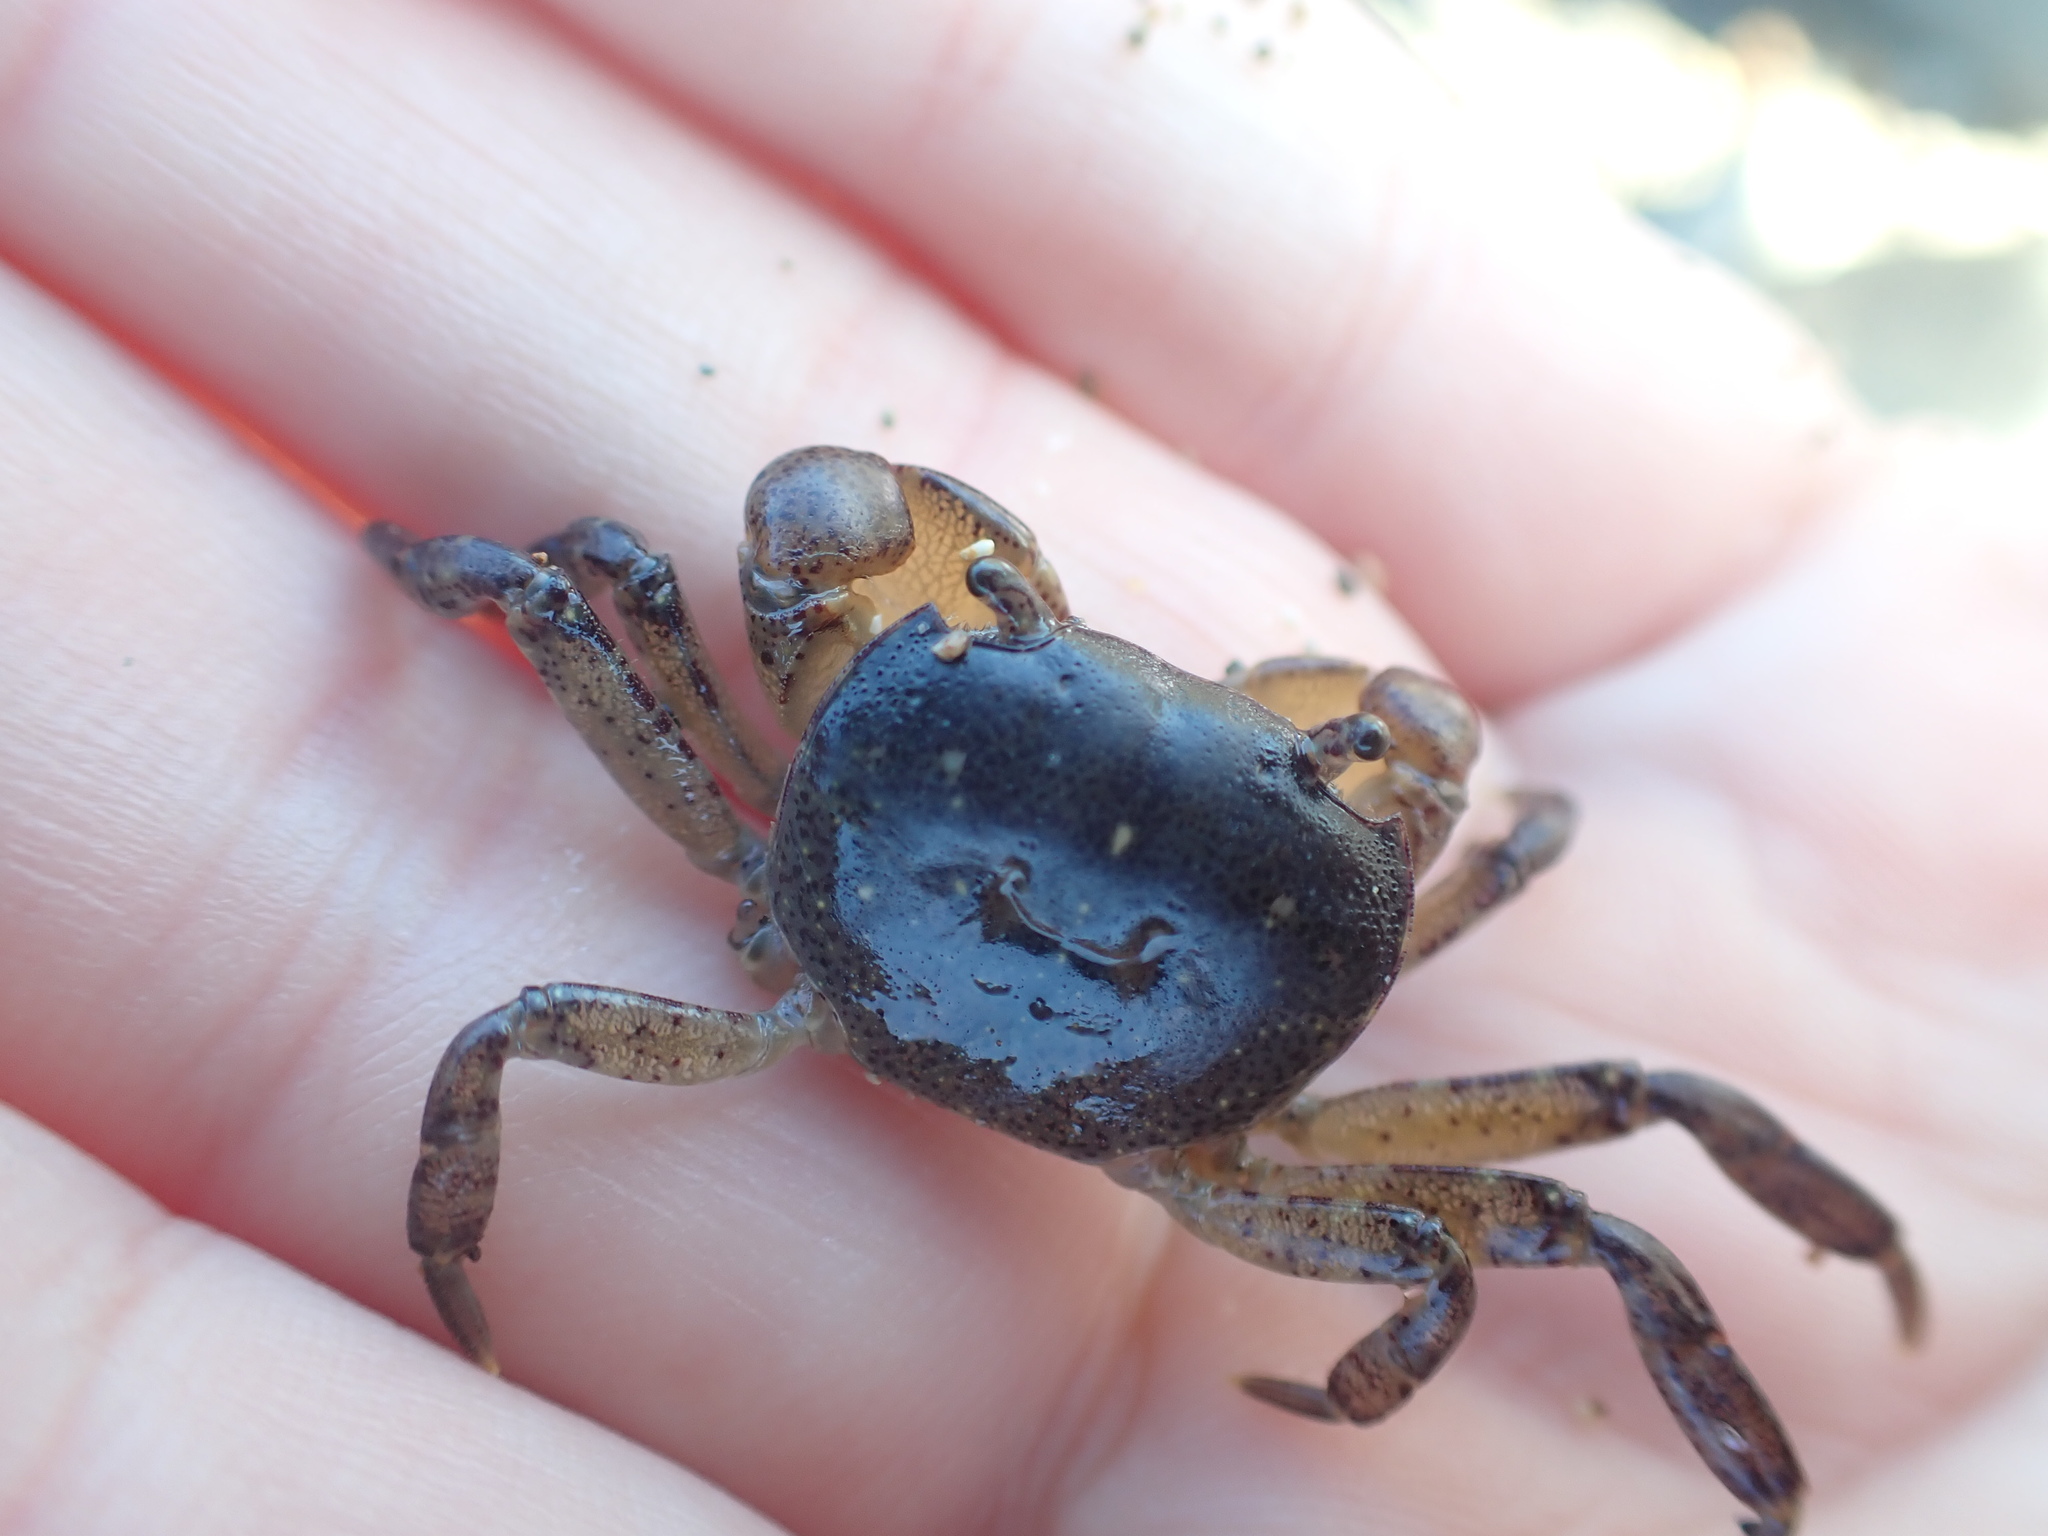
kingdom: Animalia
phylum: Arthropoda
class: Malacostraca
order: Decapoda
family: Varunidae
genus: Cyclograpsus
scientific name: Cyclograpsus lavauxi
